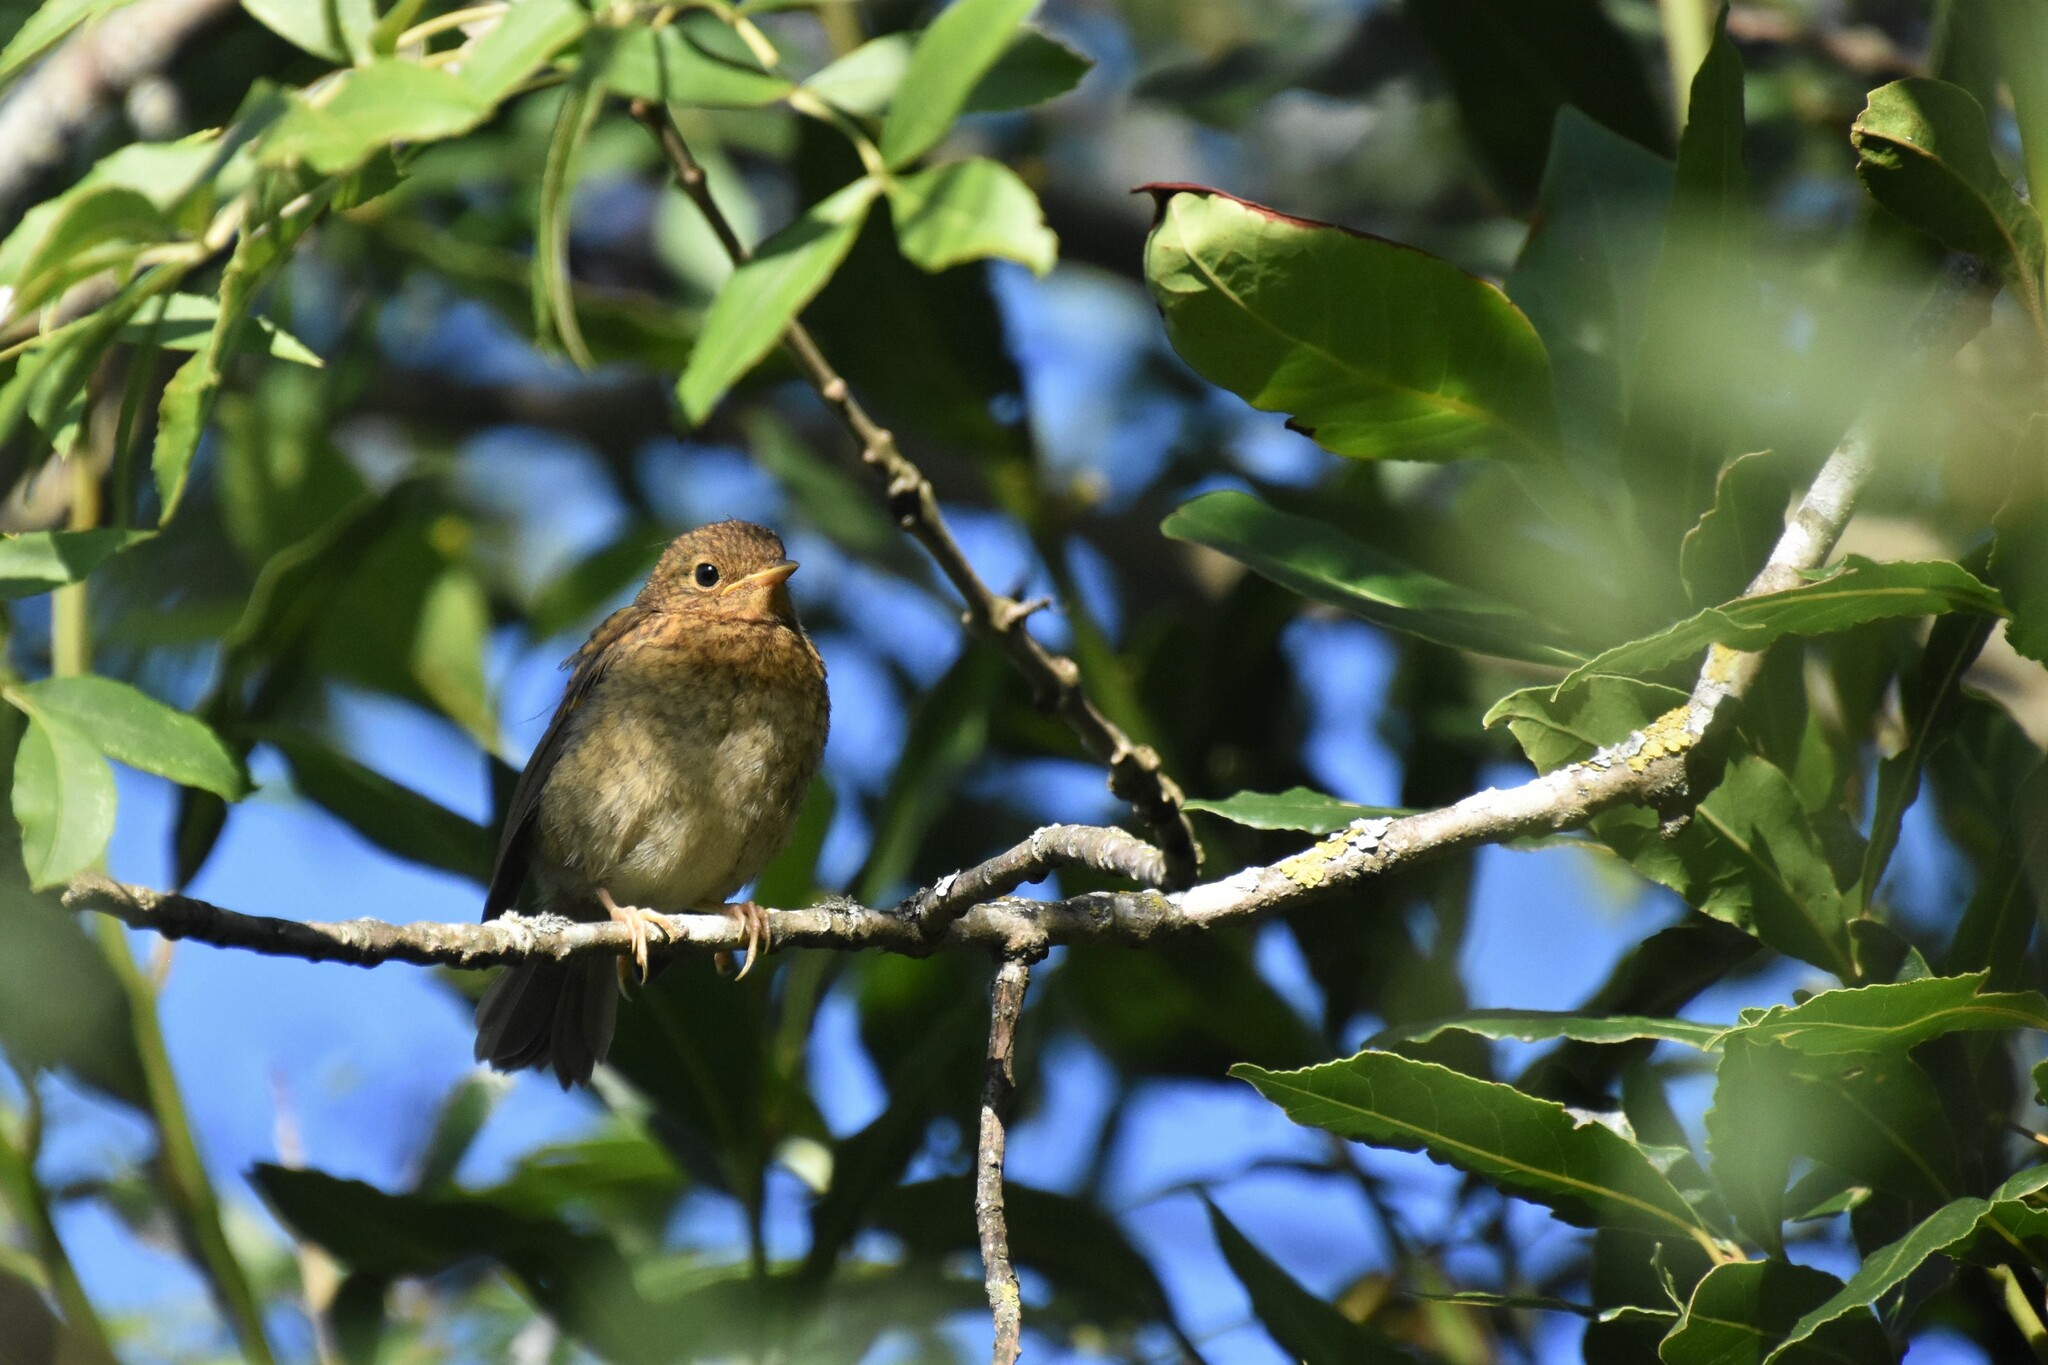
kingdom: Animalia
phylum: Chordata
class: Aves
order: Passeriformes
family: Muscicapidae
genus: Erithacus
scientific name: Erithacus rubecula
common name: European robin
